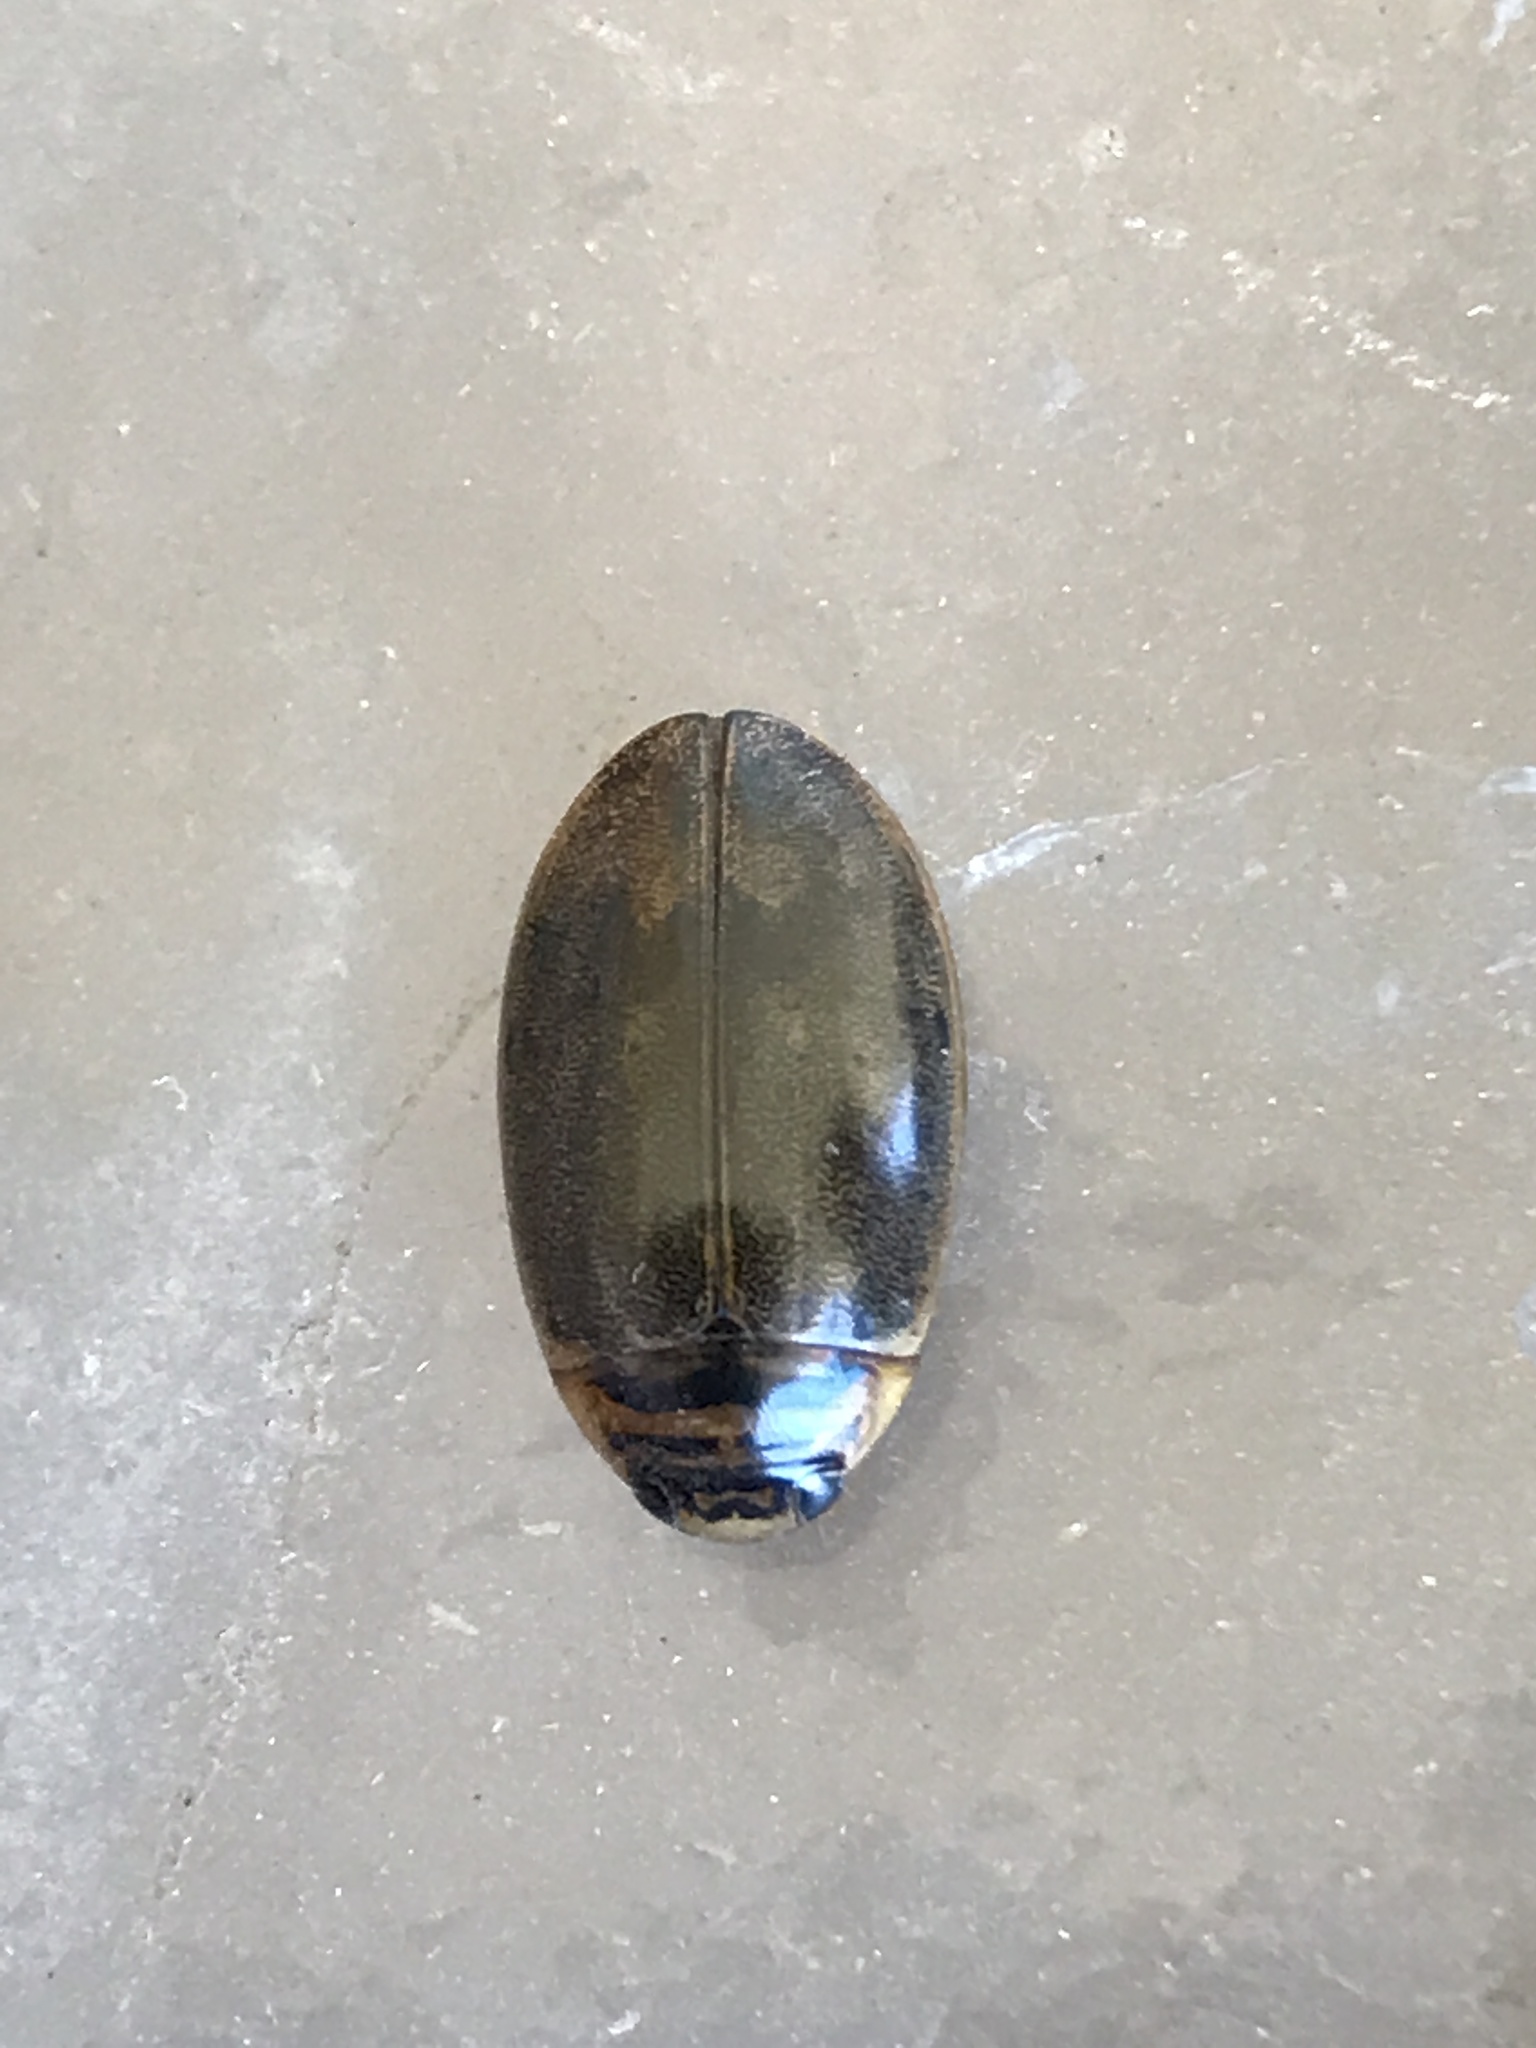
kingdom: Animalia
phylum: Arthropoda
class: Insecta
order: Coleoptera
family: Dytiscidae
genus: Thermonectus
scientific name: Thermonectus nigrofasciatus
